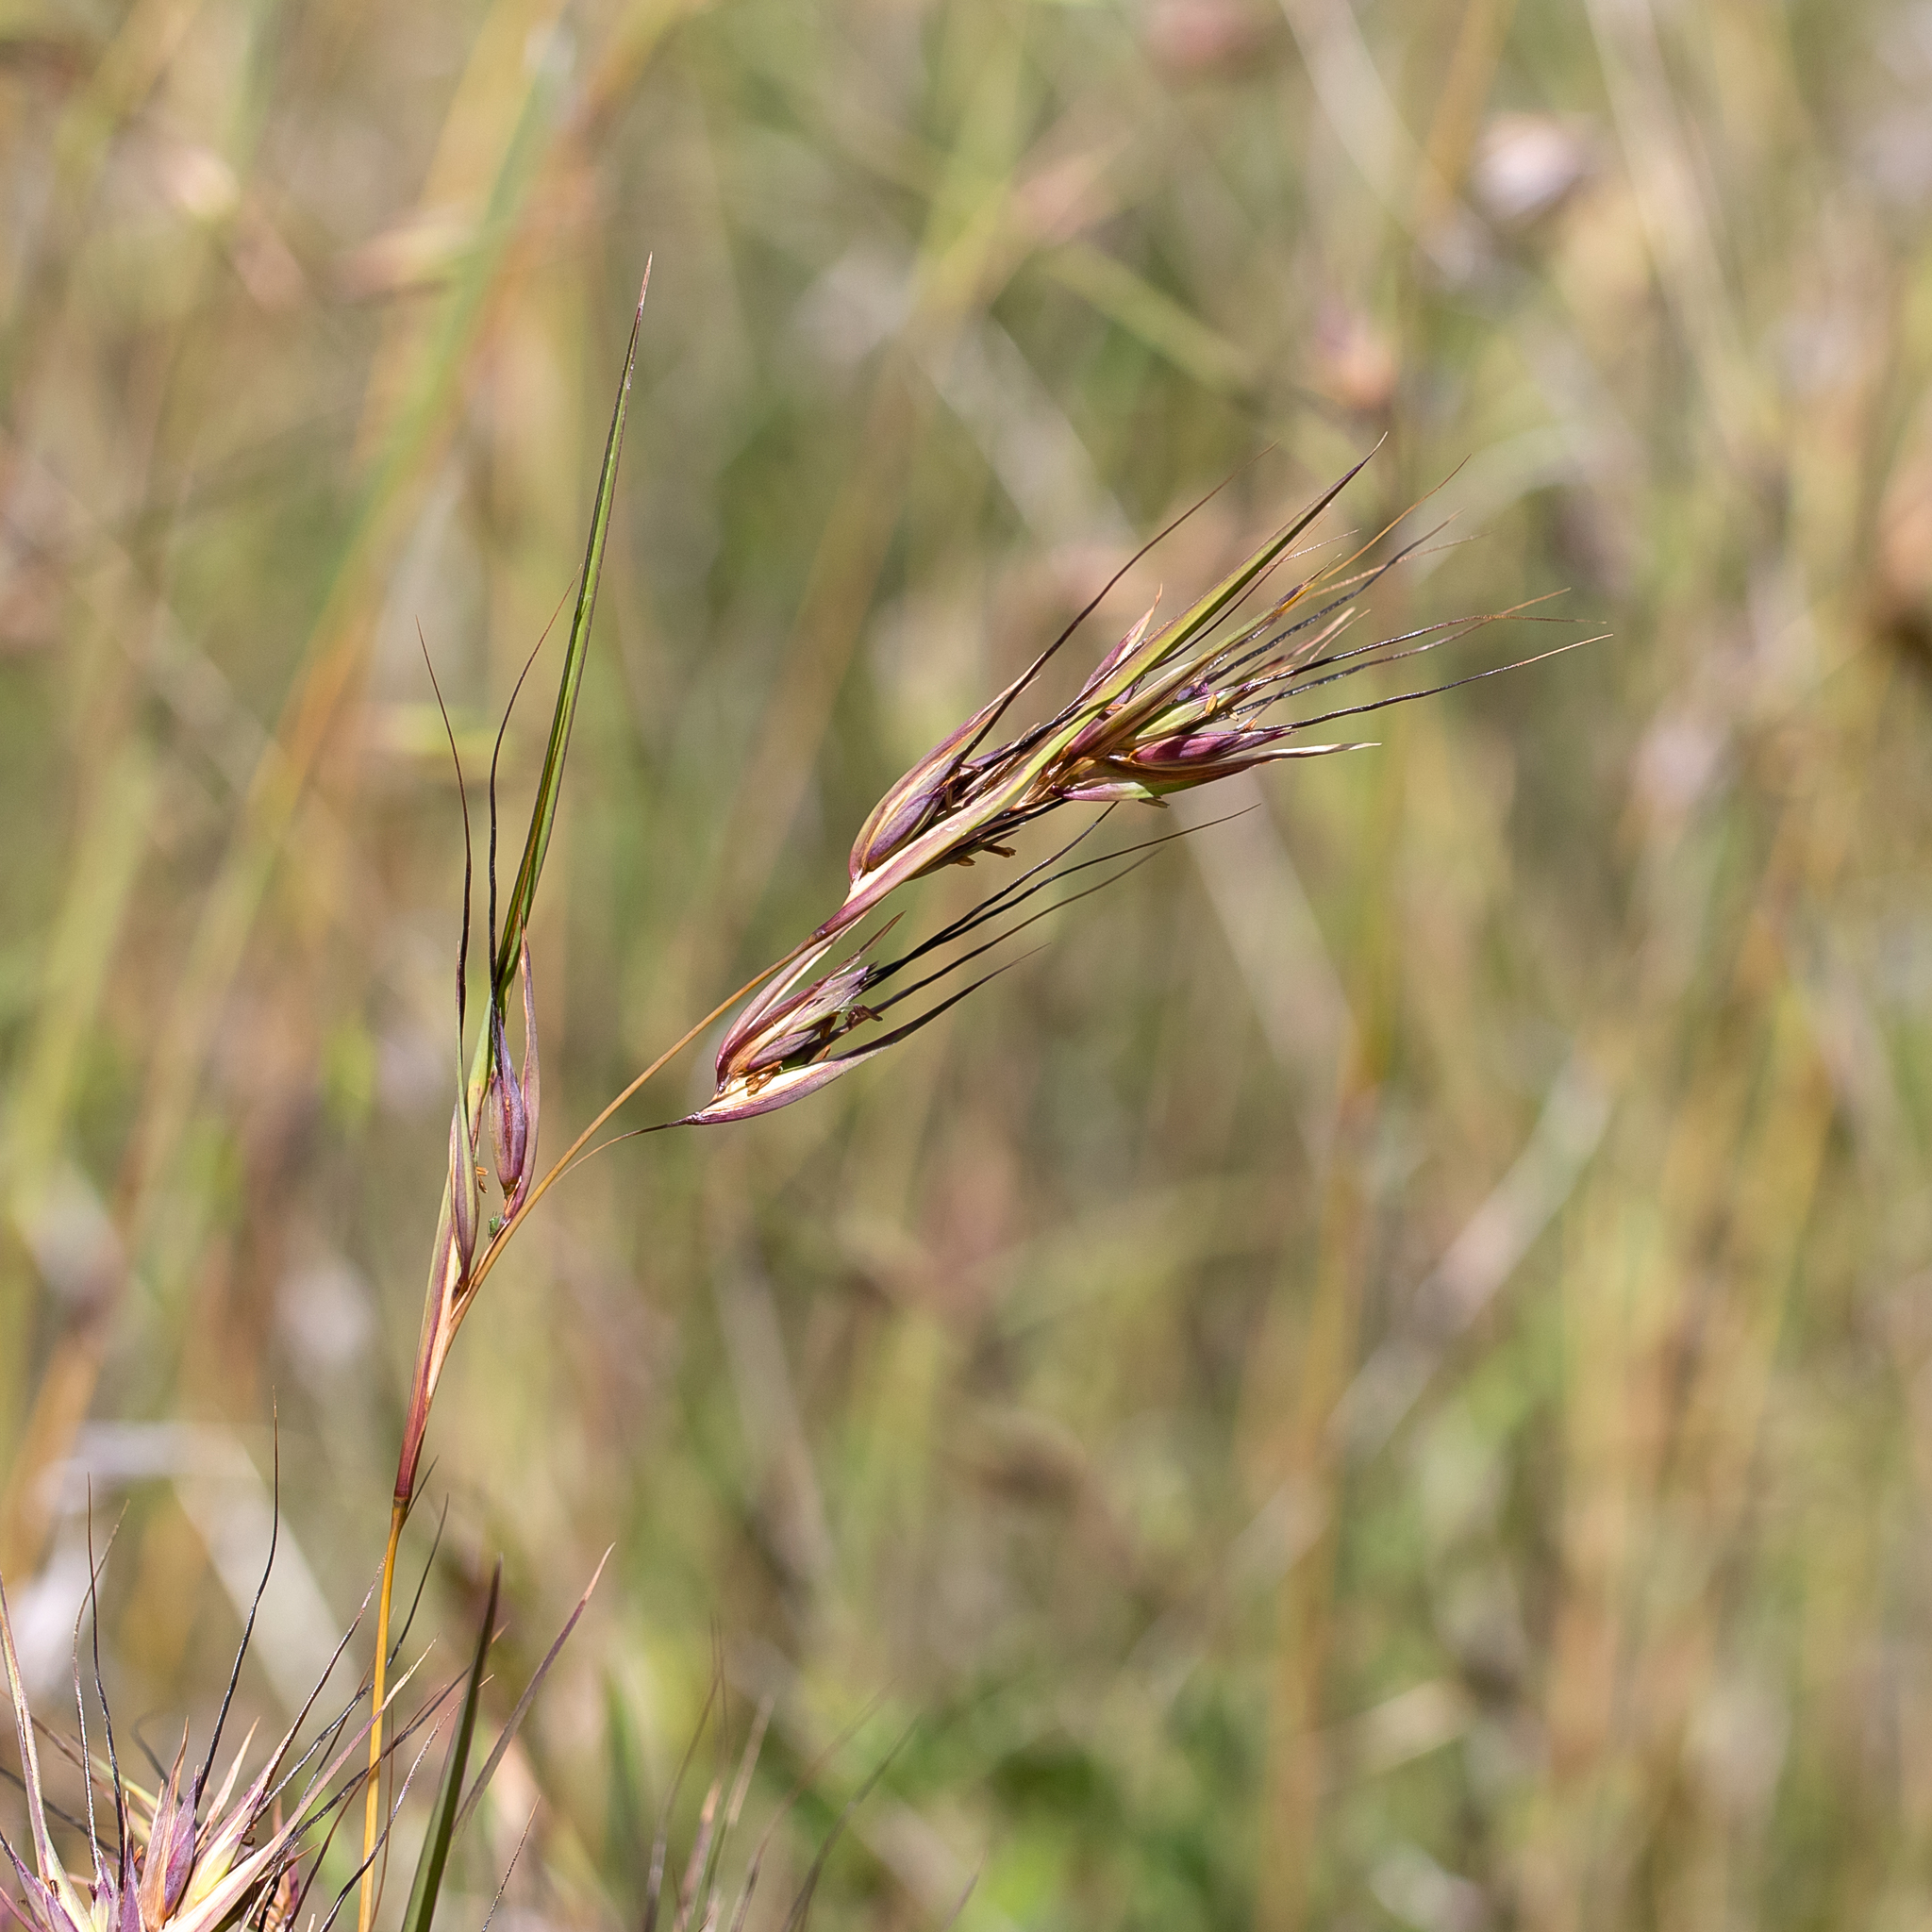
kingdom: Plantae
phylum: Tracheophyta
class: Liliopsida
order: Poales
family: Poaceae
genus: Themeda
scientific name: Themeda triandra
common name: Kangaroo grass
